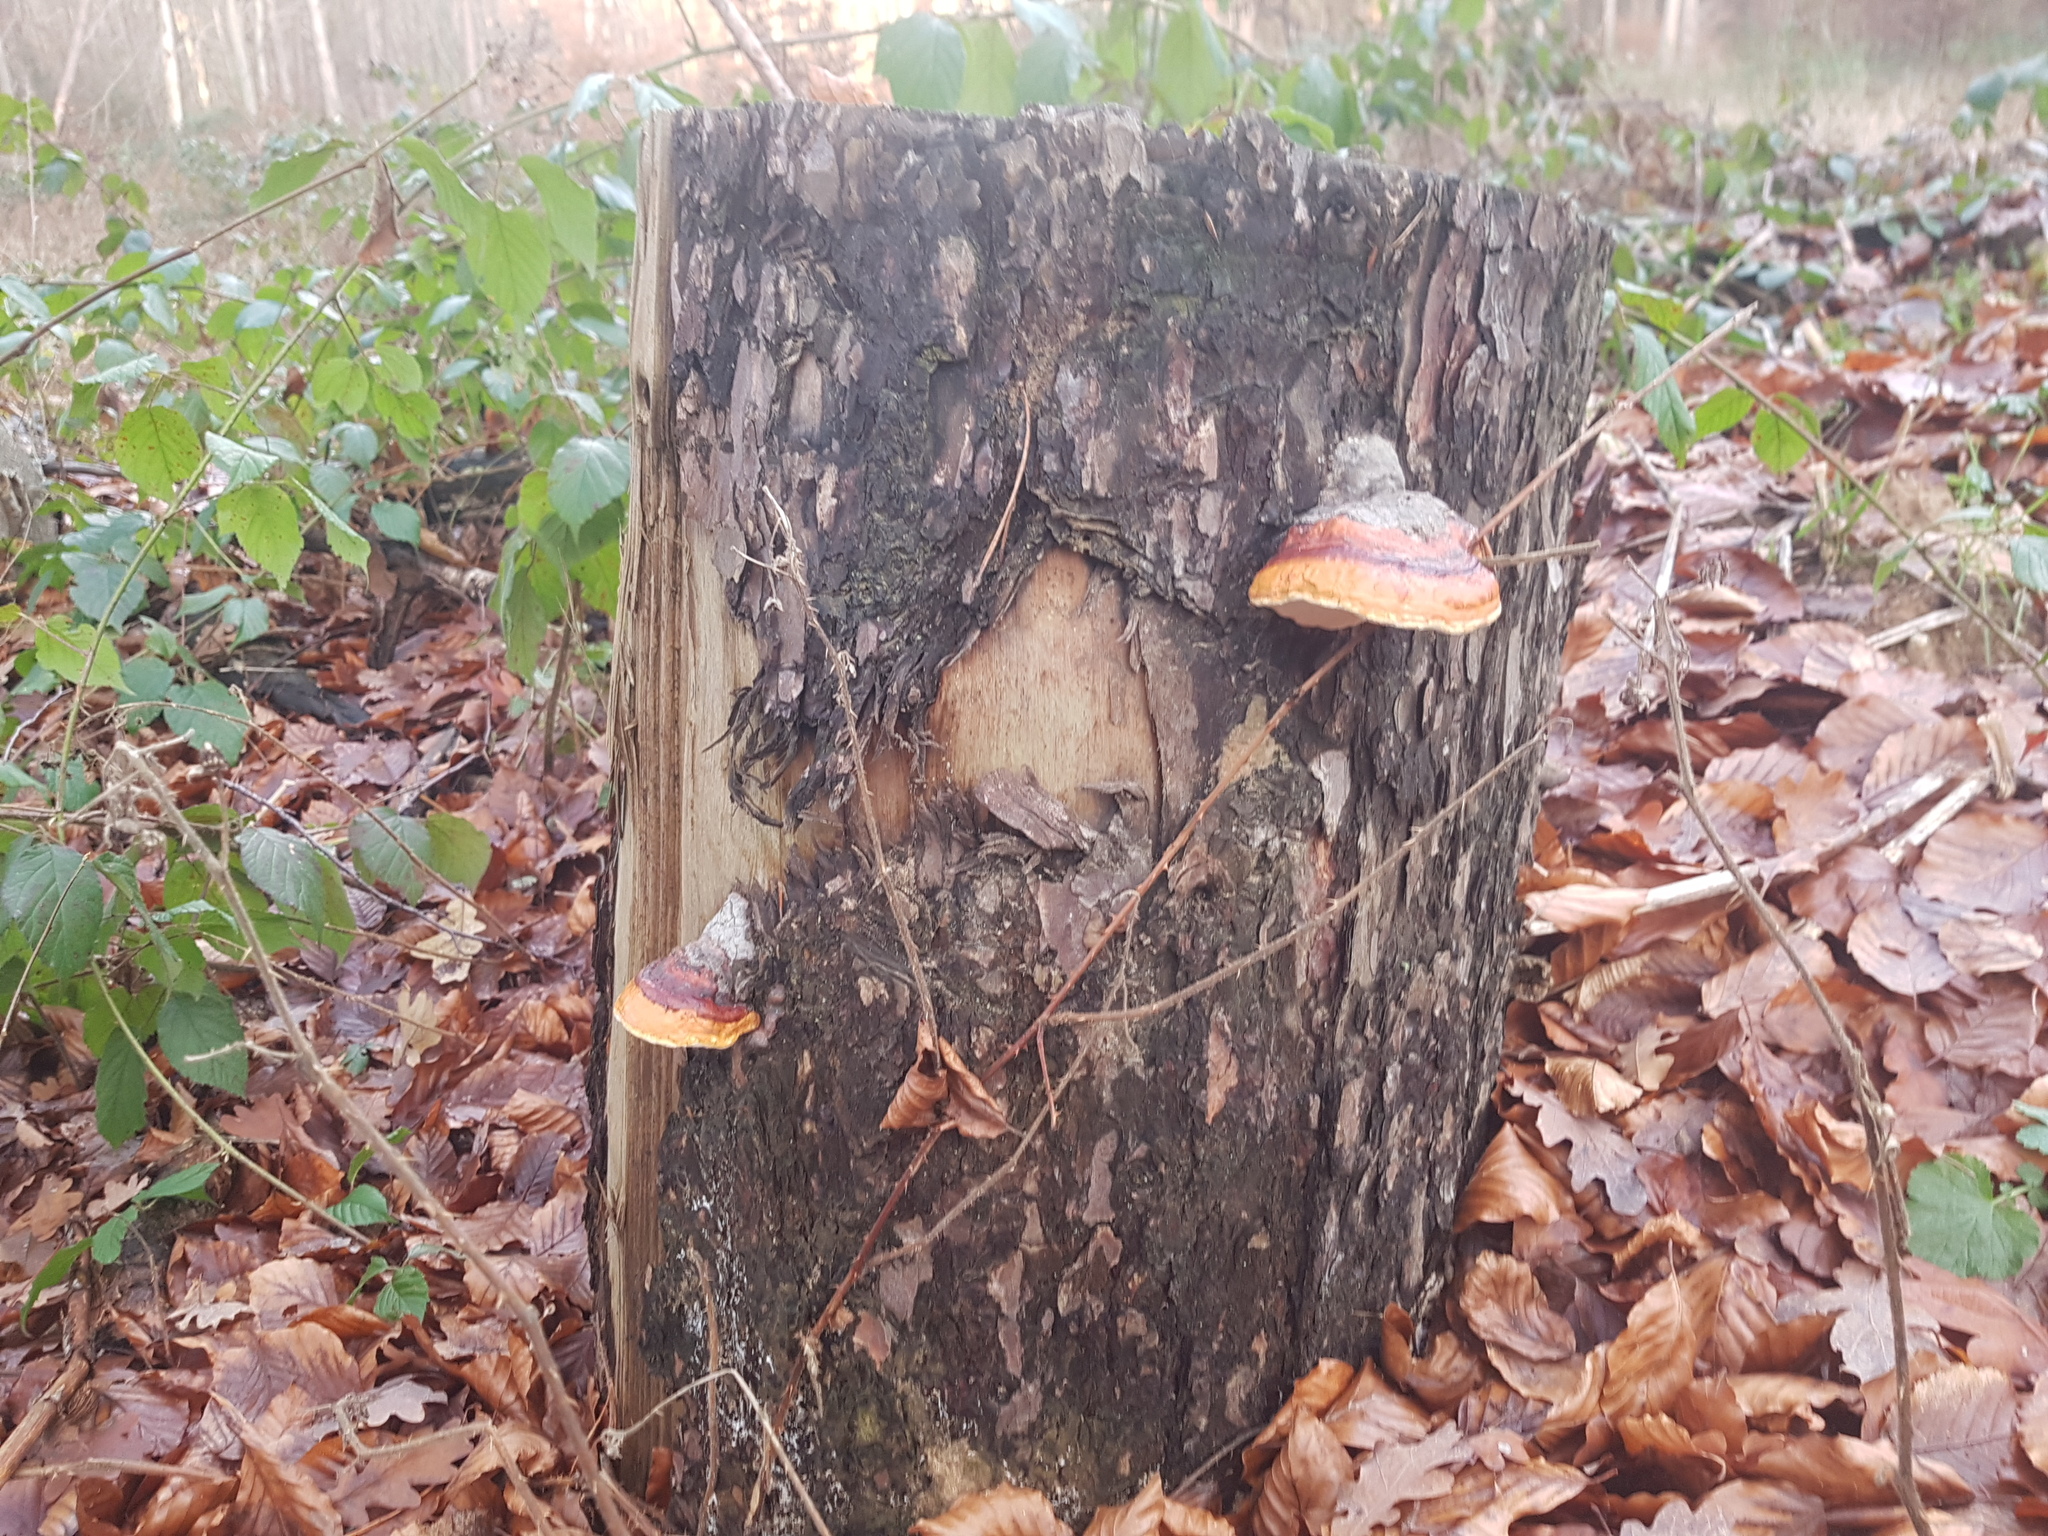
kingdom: Fungi
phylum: Basidiomycota
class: Agaricomycetes
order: Polyporales
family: Fomitopsidaceae
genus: Fomitopsis
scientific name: Fomitopsis pinicola
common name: Red-belted bracket
